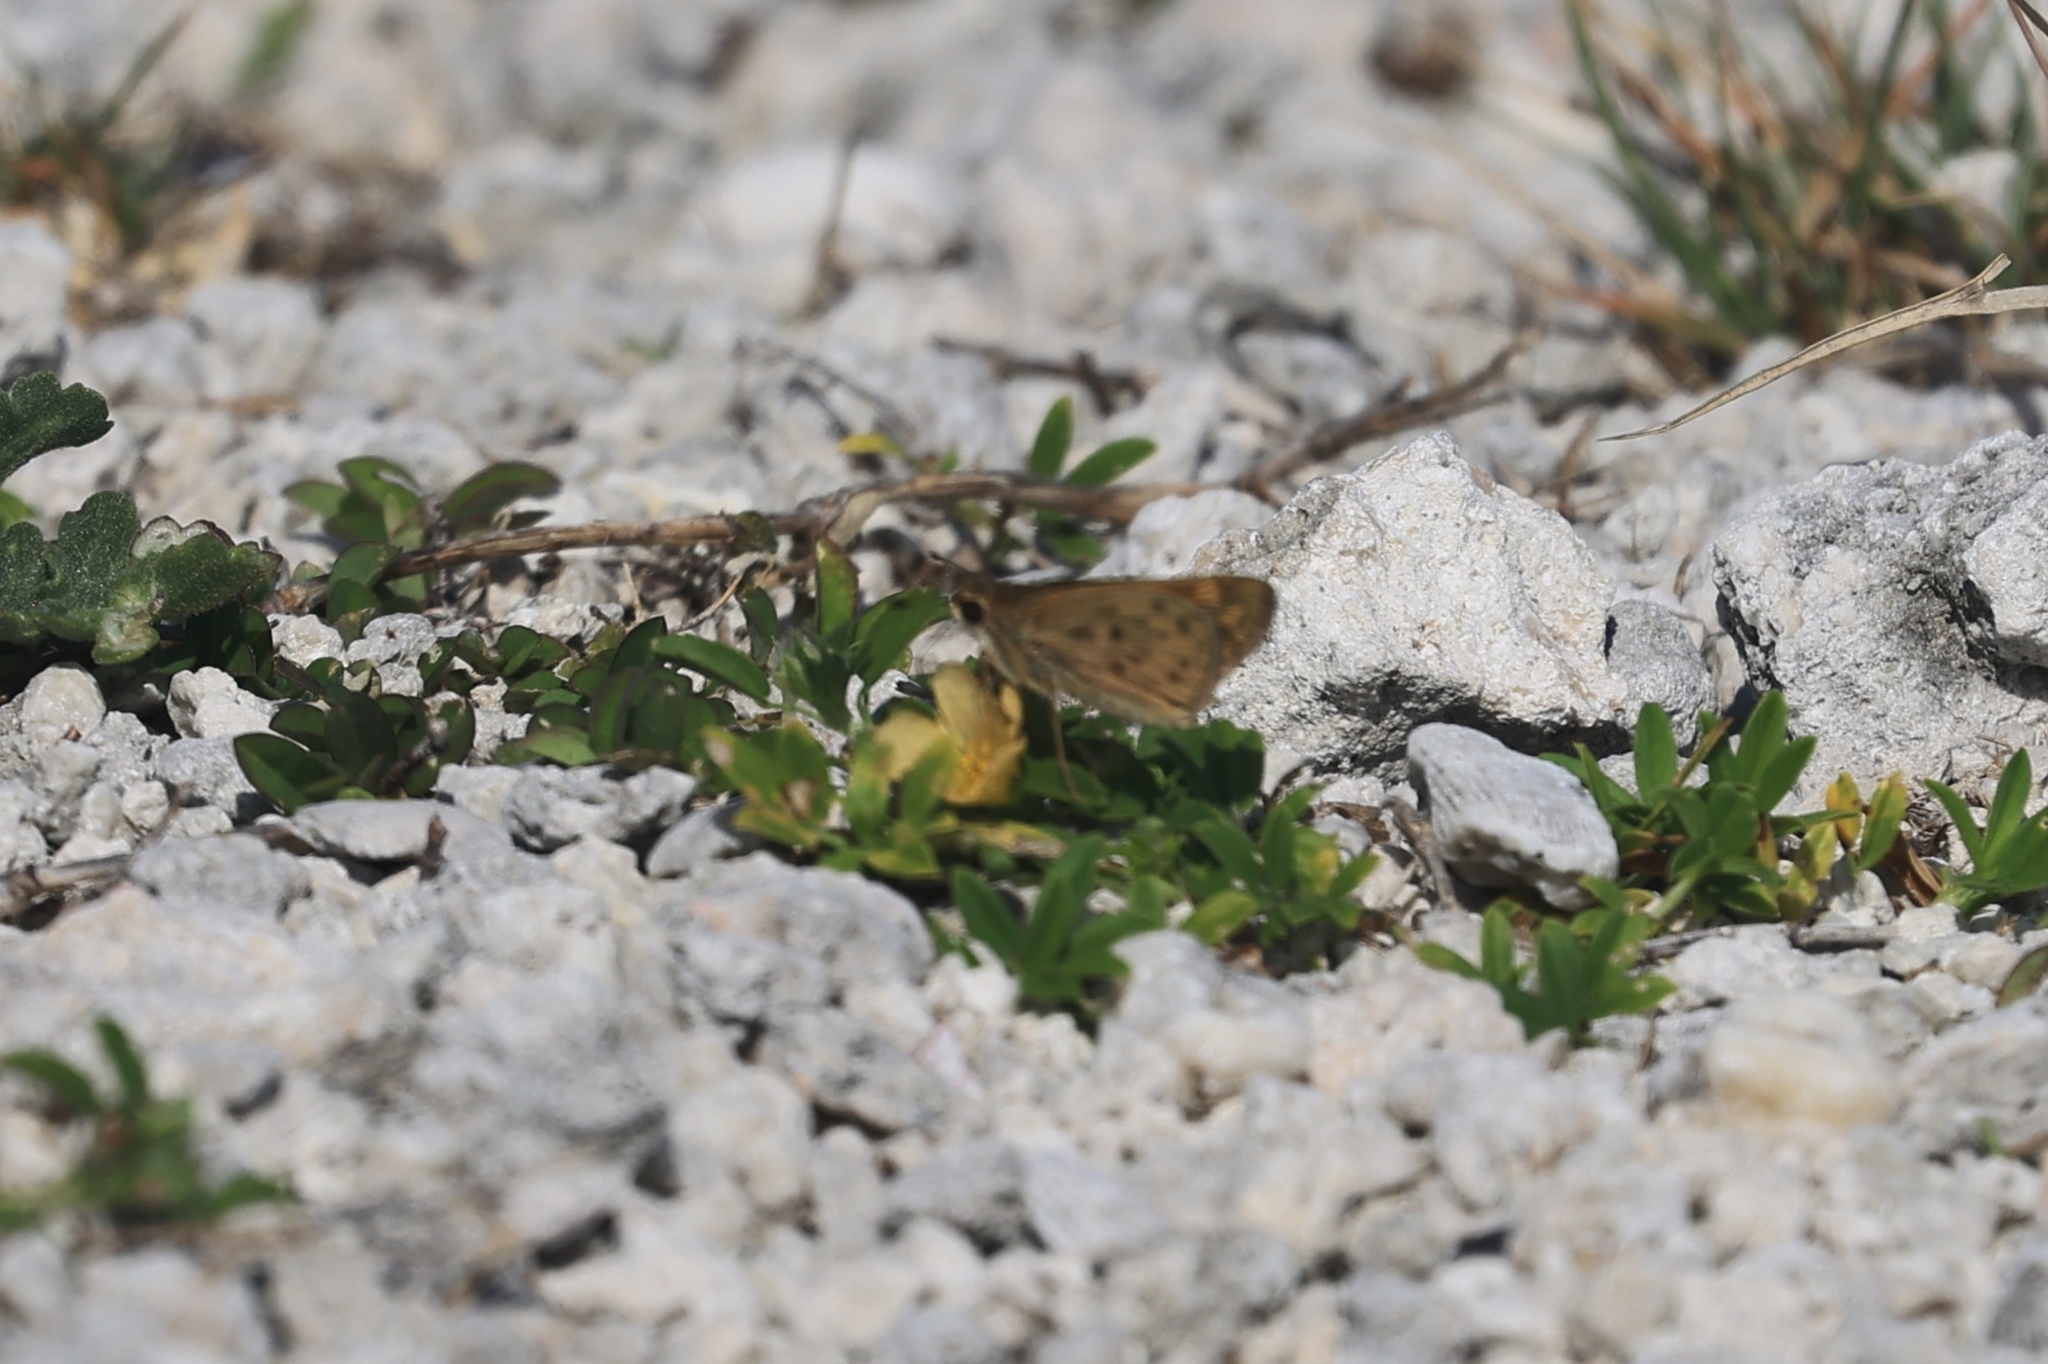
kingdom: Animalia
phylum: Arthropoda
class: Insecta
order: Lepidoptera
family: Hesperiidae
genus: Hylephila
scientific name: Hylephila phyleus
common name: Fiery skipper
